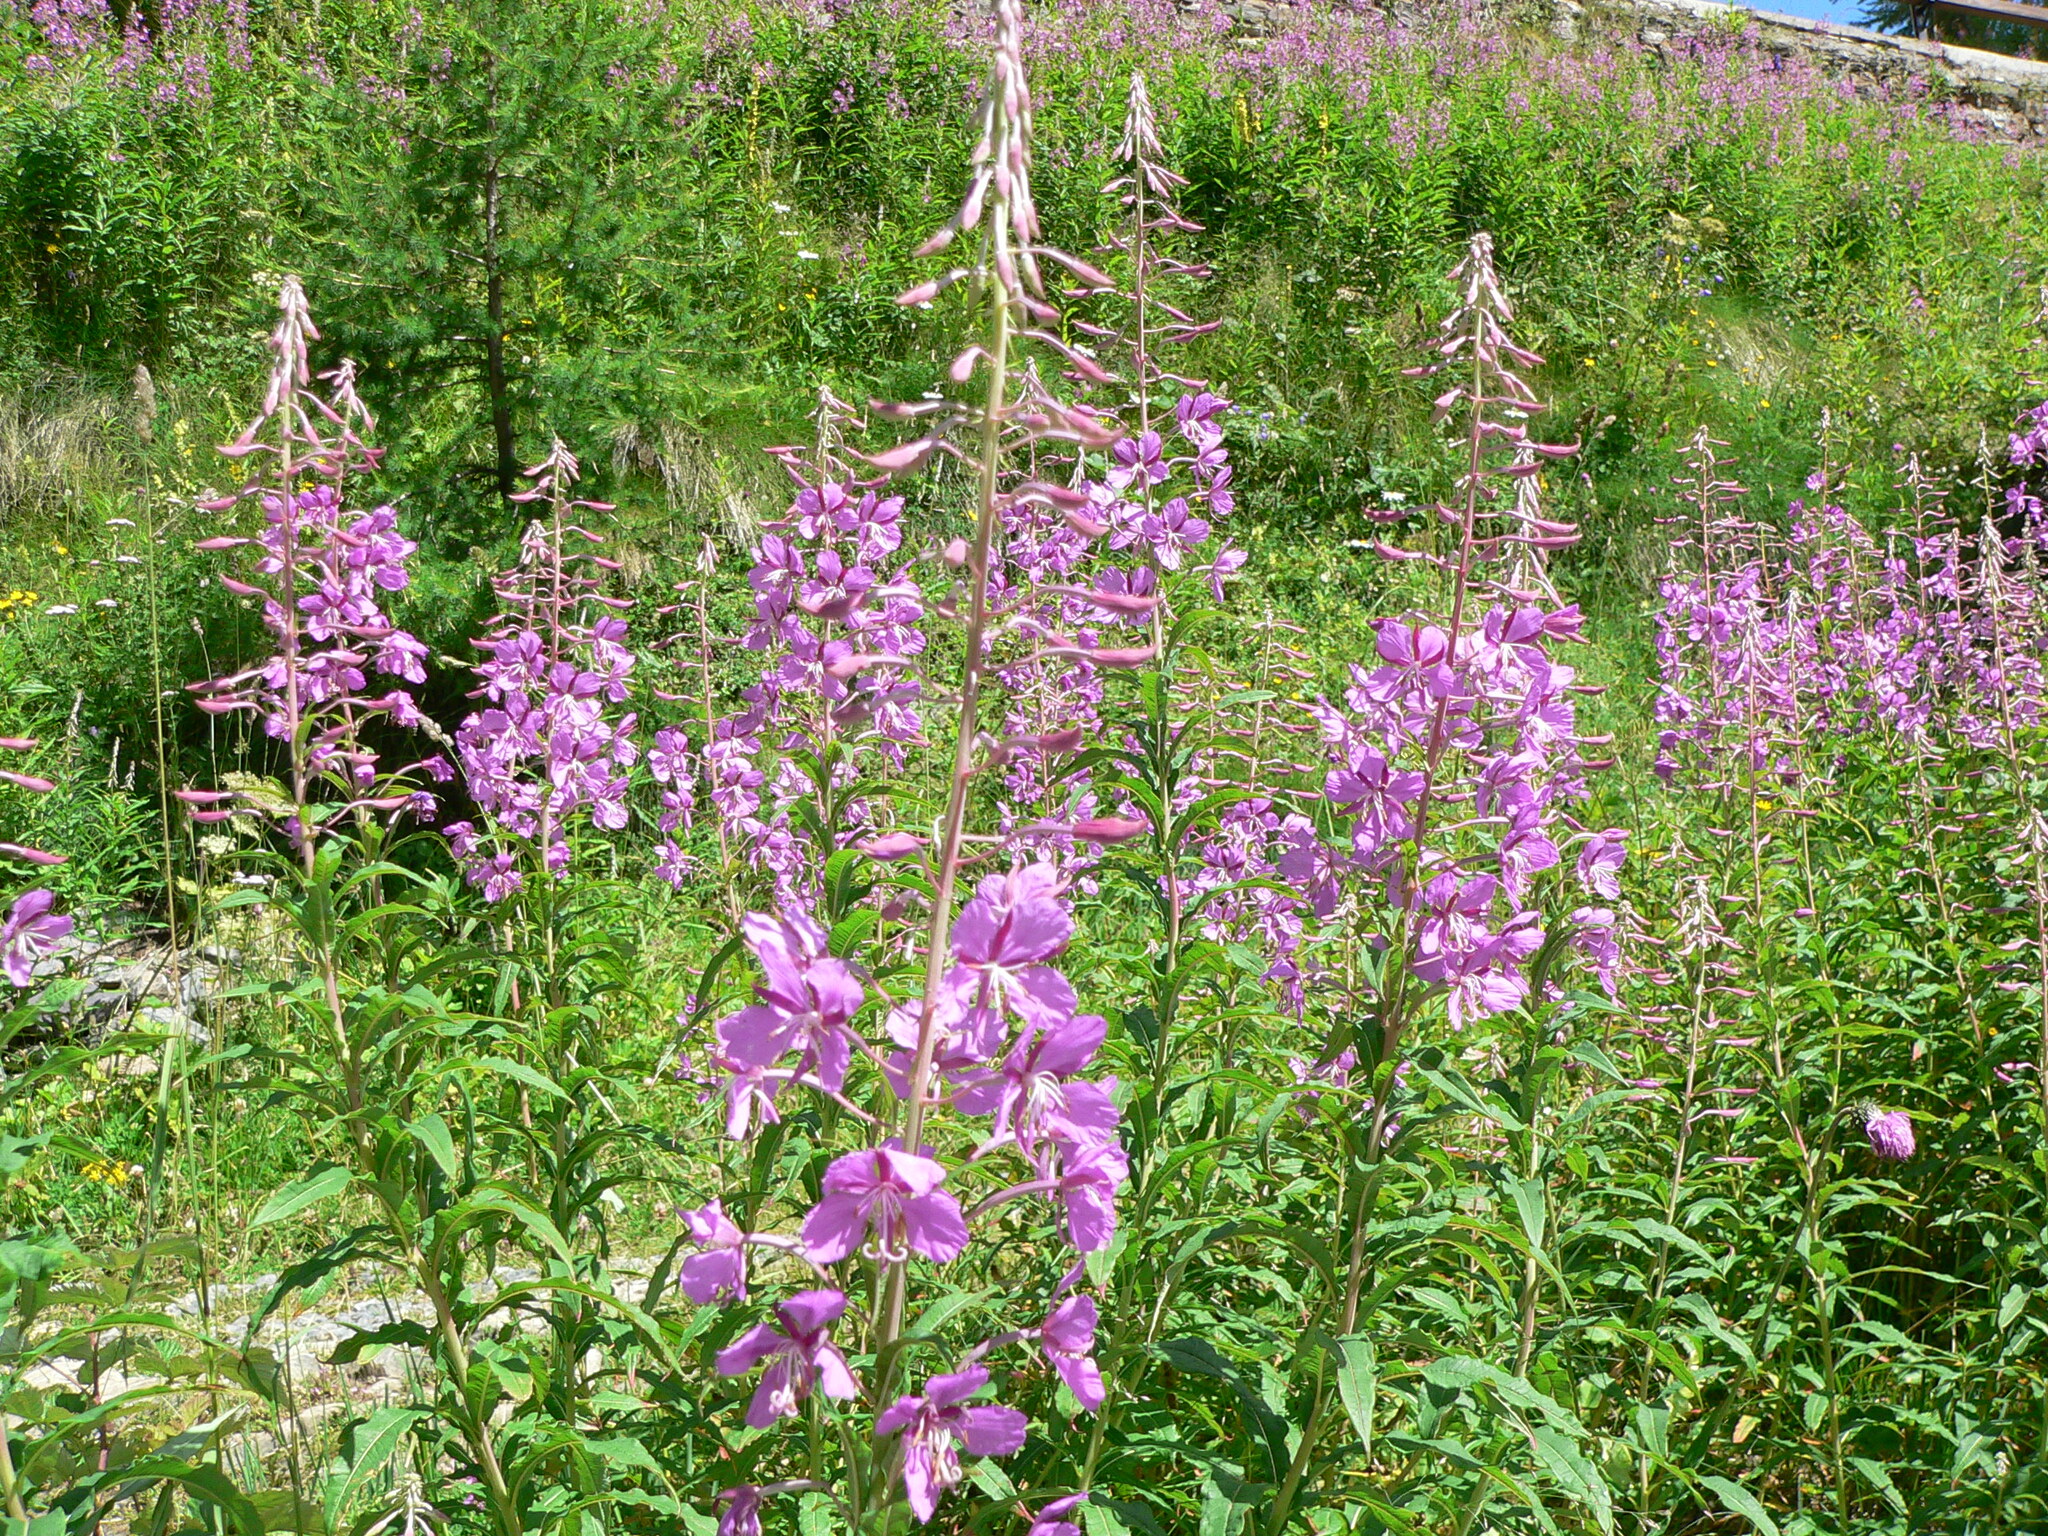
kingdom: Plantae
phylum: Tracheophyta
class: Magnoliopsida
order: Myrtales
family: Onagraceae
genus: Chamaenerion
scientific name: Chamaenerion angustifolium
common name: Fireweed
